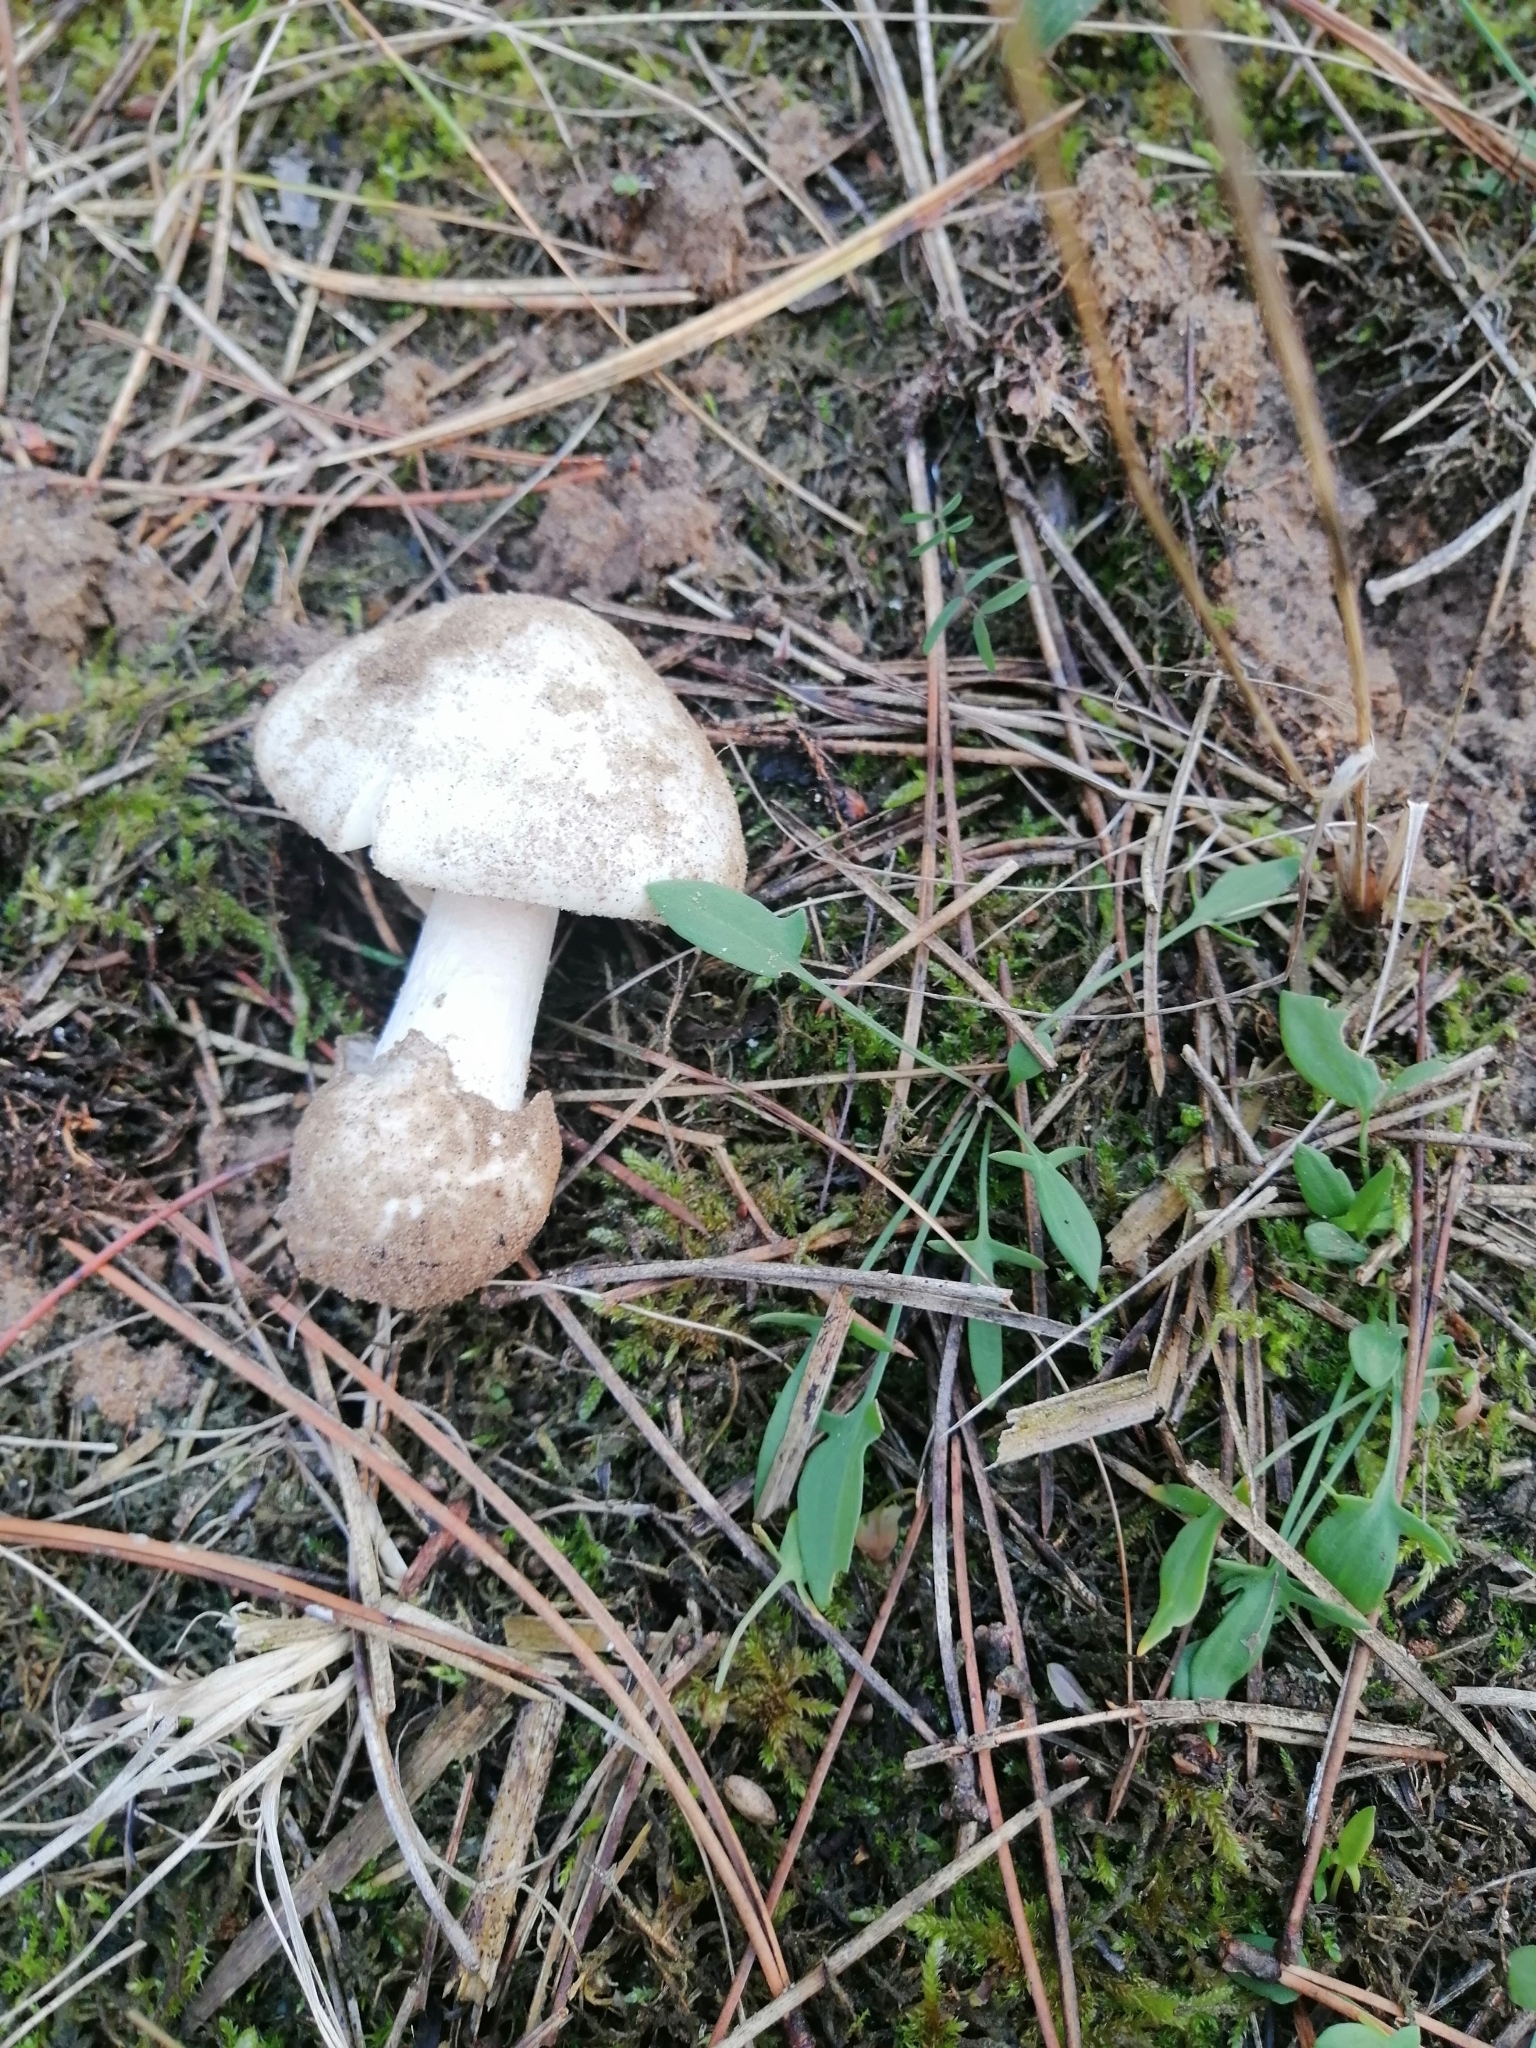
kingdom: Fungi
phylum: Basidiomycota
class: Agaricomycetes
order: Agaricales
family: Amanitaceae
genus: Amanita
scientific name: Amanita phalloides
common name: Death cap
